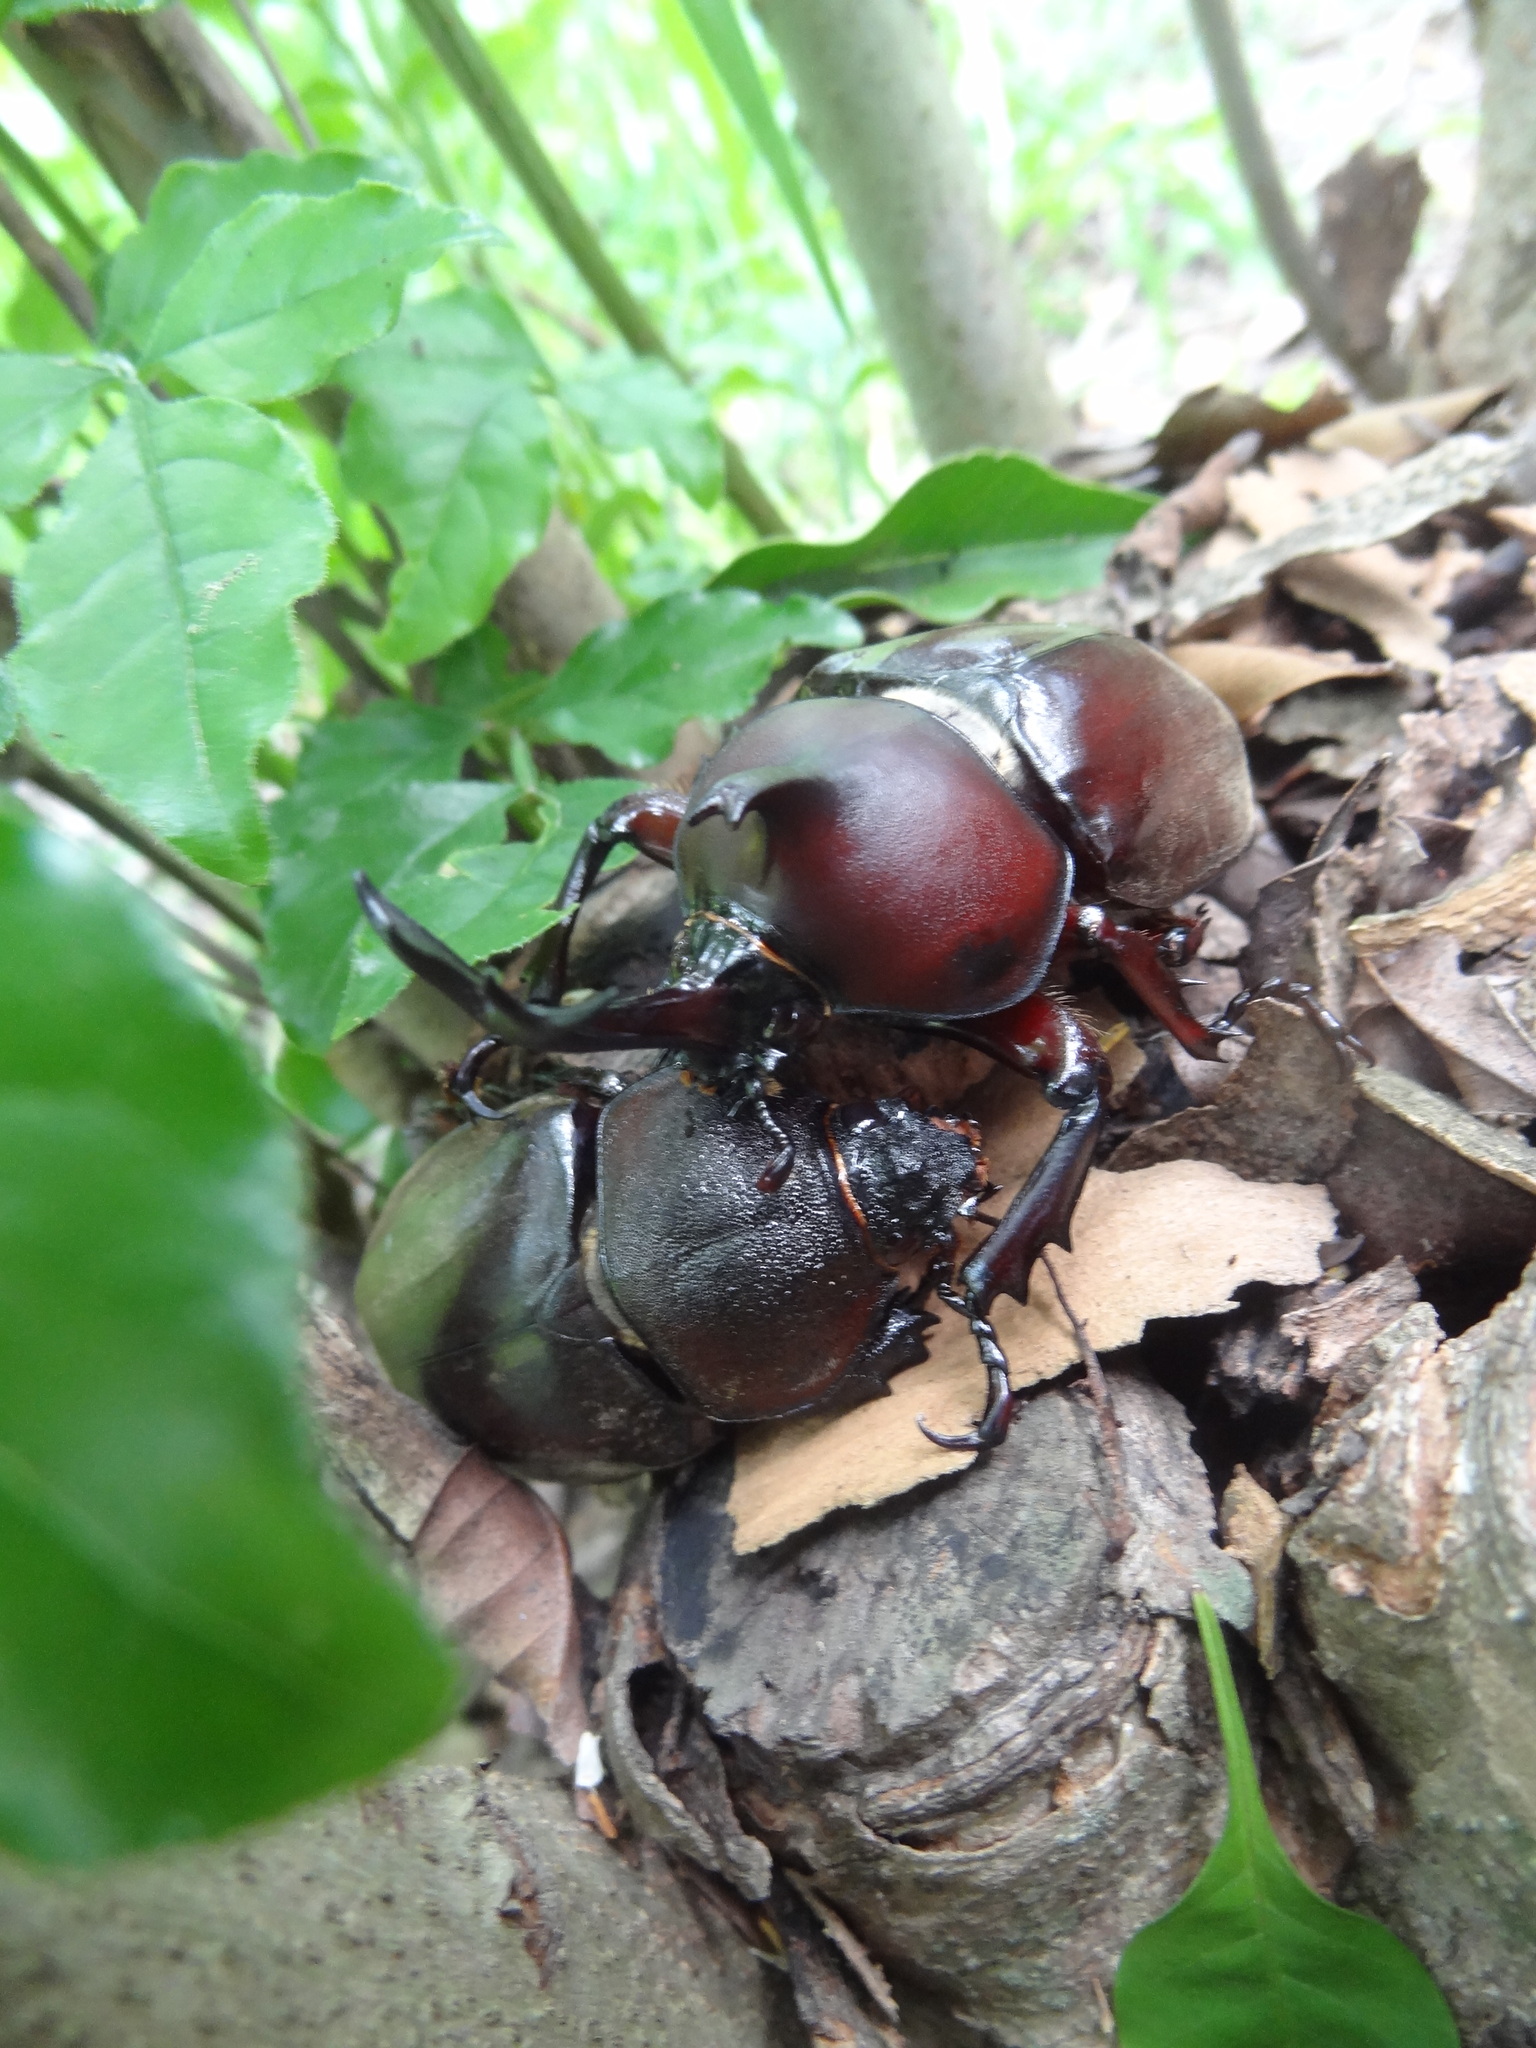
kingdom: Animalia
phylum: Arthropoda
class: Insecta
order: Coleoptera
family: Scarabaeidae
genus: Trypoxylus
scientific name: Trypoxylus dichotomus
